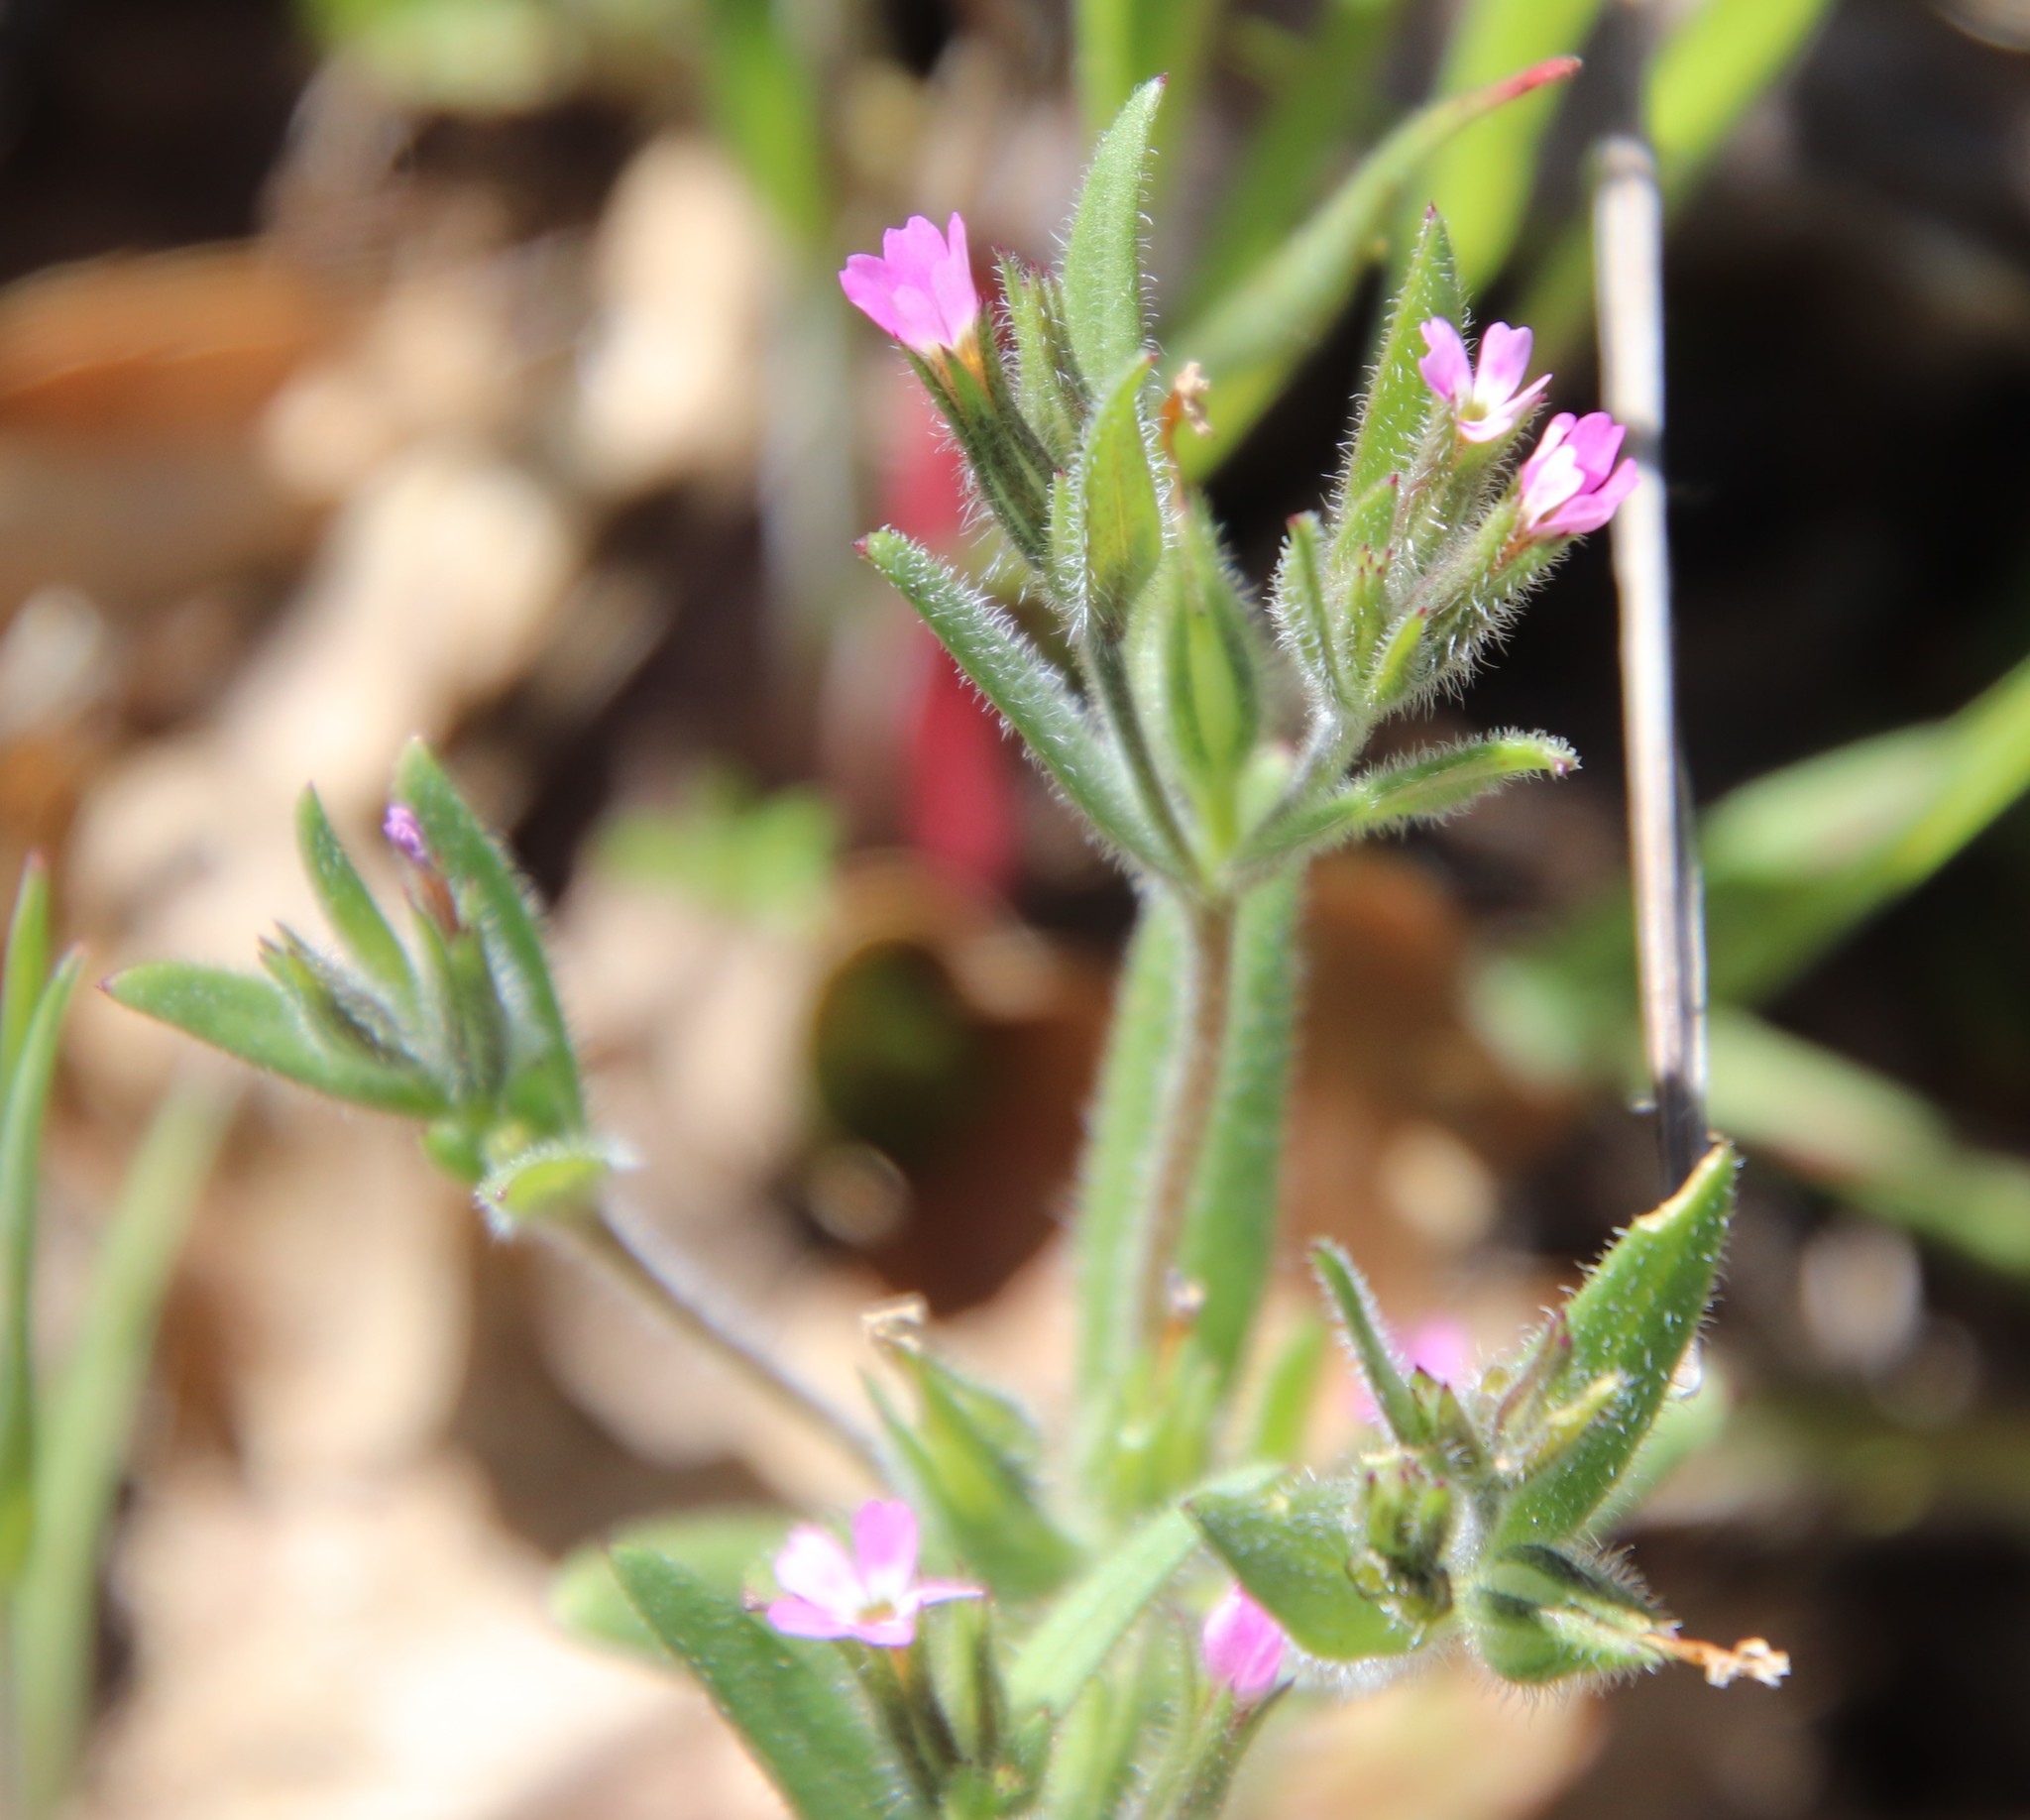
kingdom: Plantae
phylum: Tracheophyta
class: Magnoliopsida
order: Ericales
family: Polemoniaceae
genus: Phlox
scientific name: Phlox gracilis
